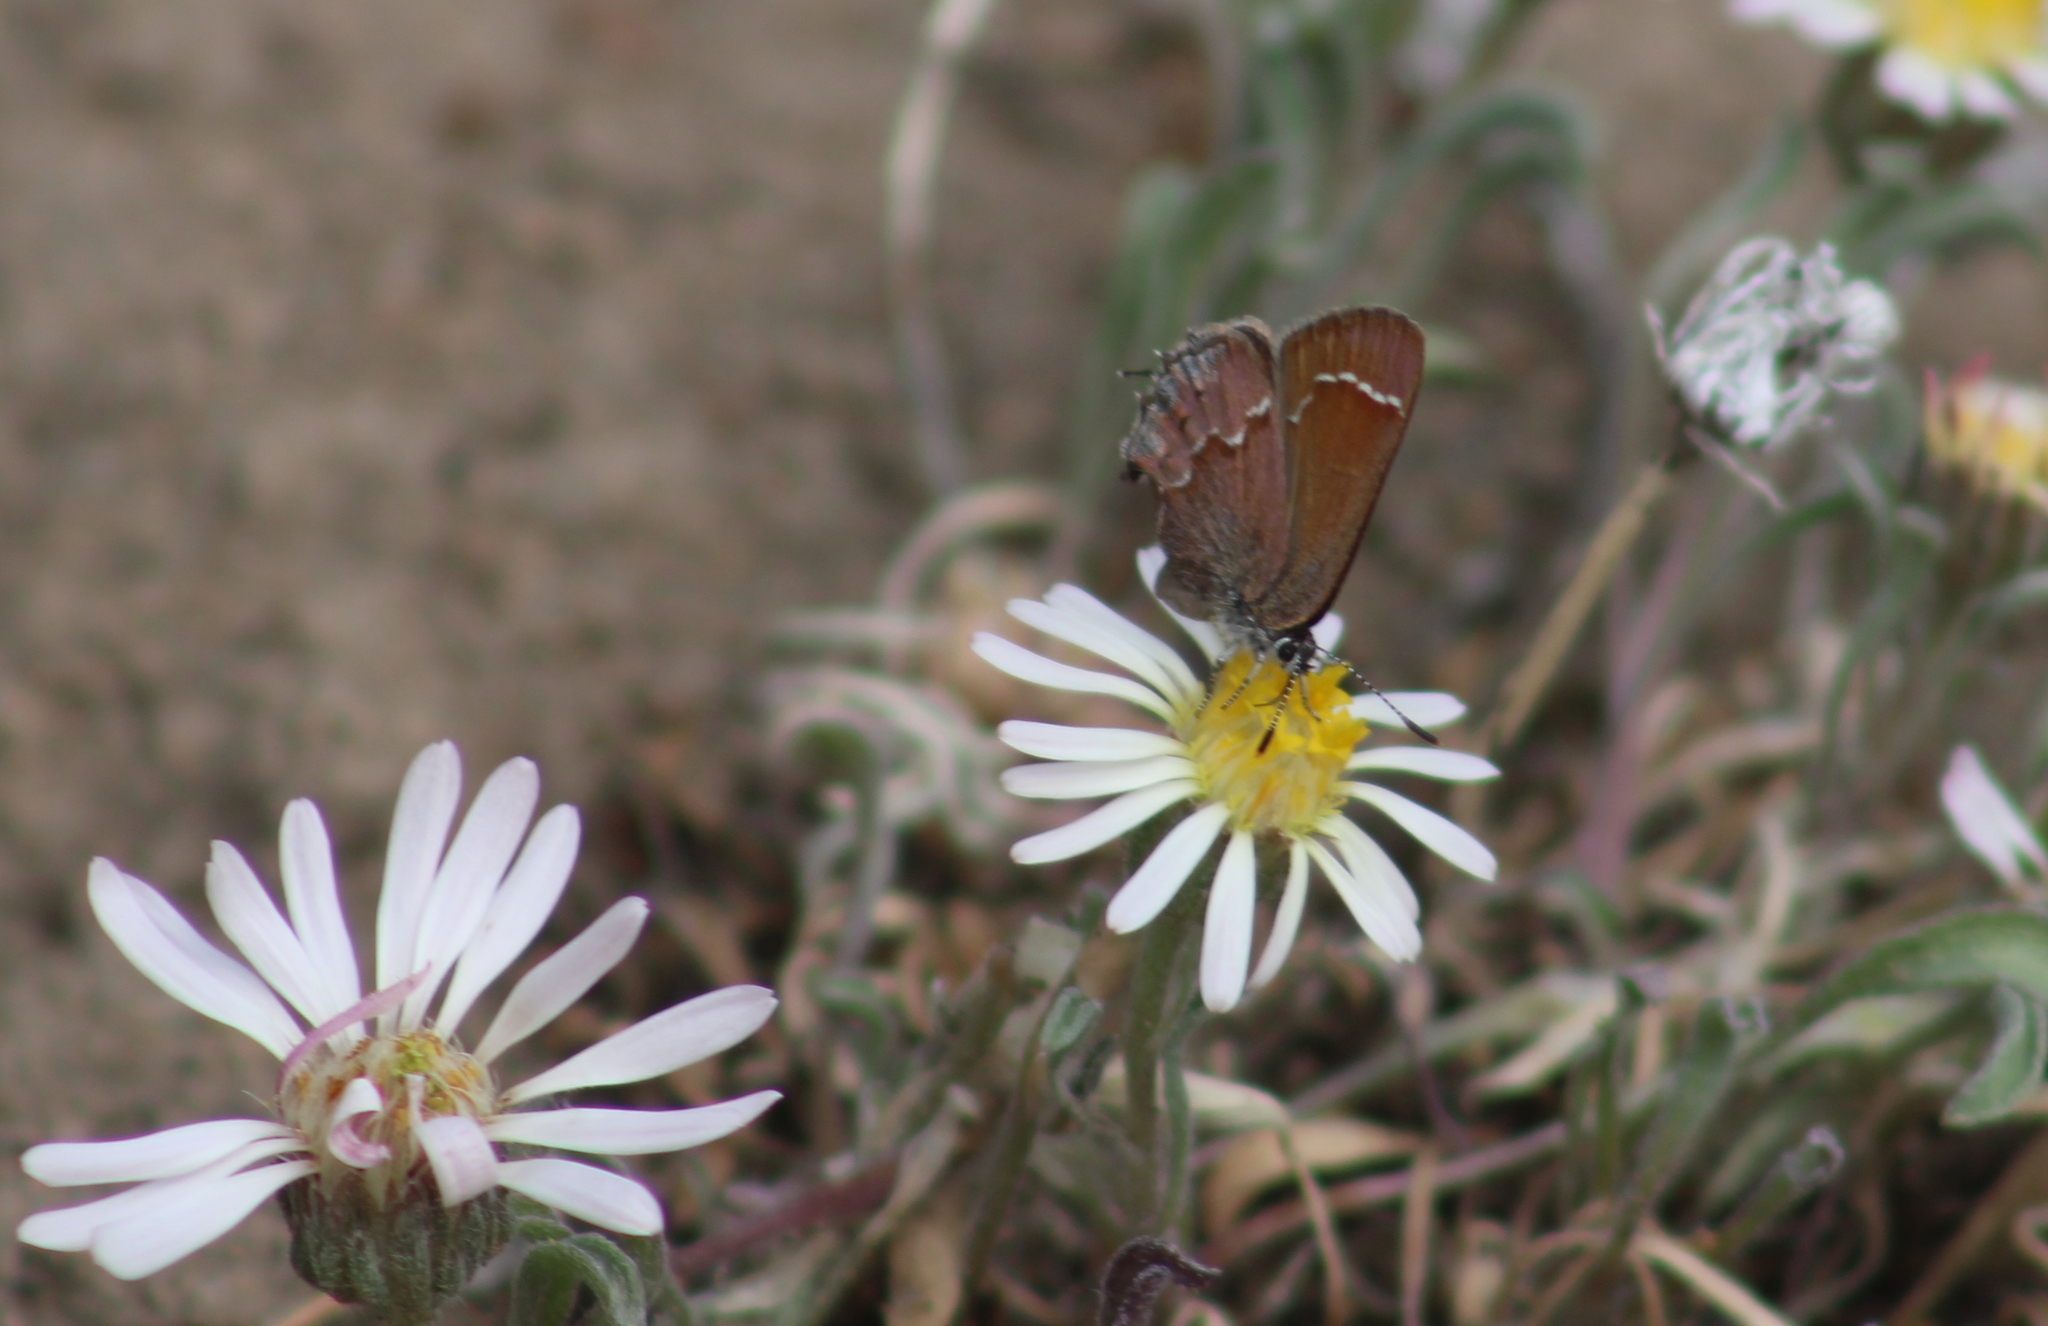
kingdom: Animalia
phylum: Arthropoda
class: Insecta
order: Lepidoptera
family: Lycaenidae
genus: Mitoura
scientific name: Mitoura gryneus
